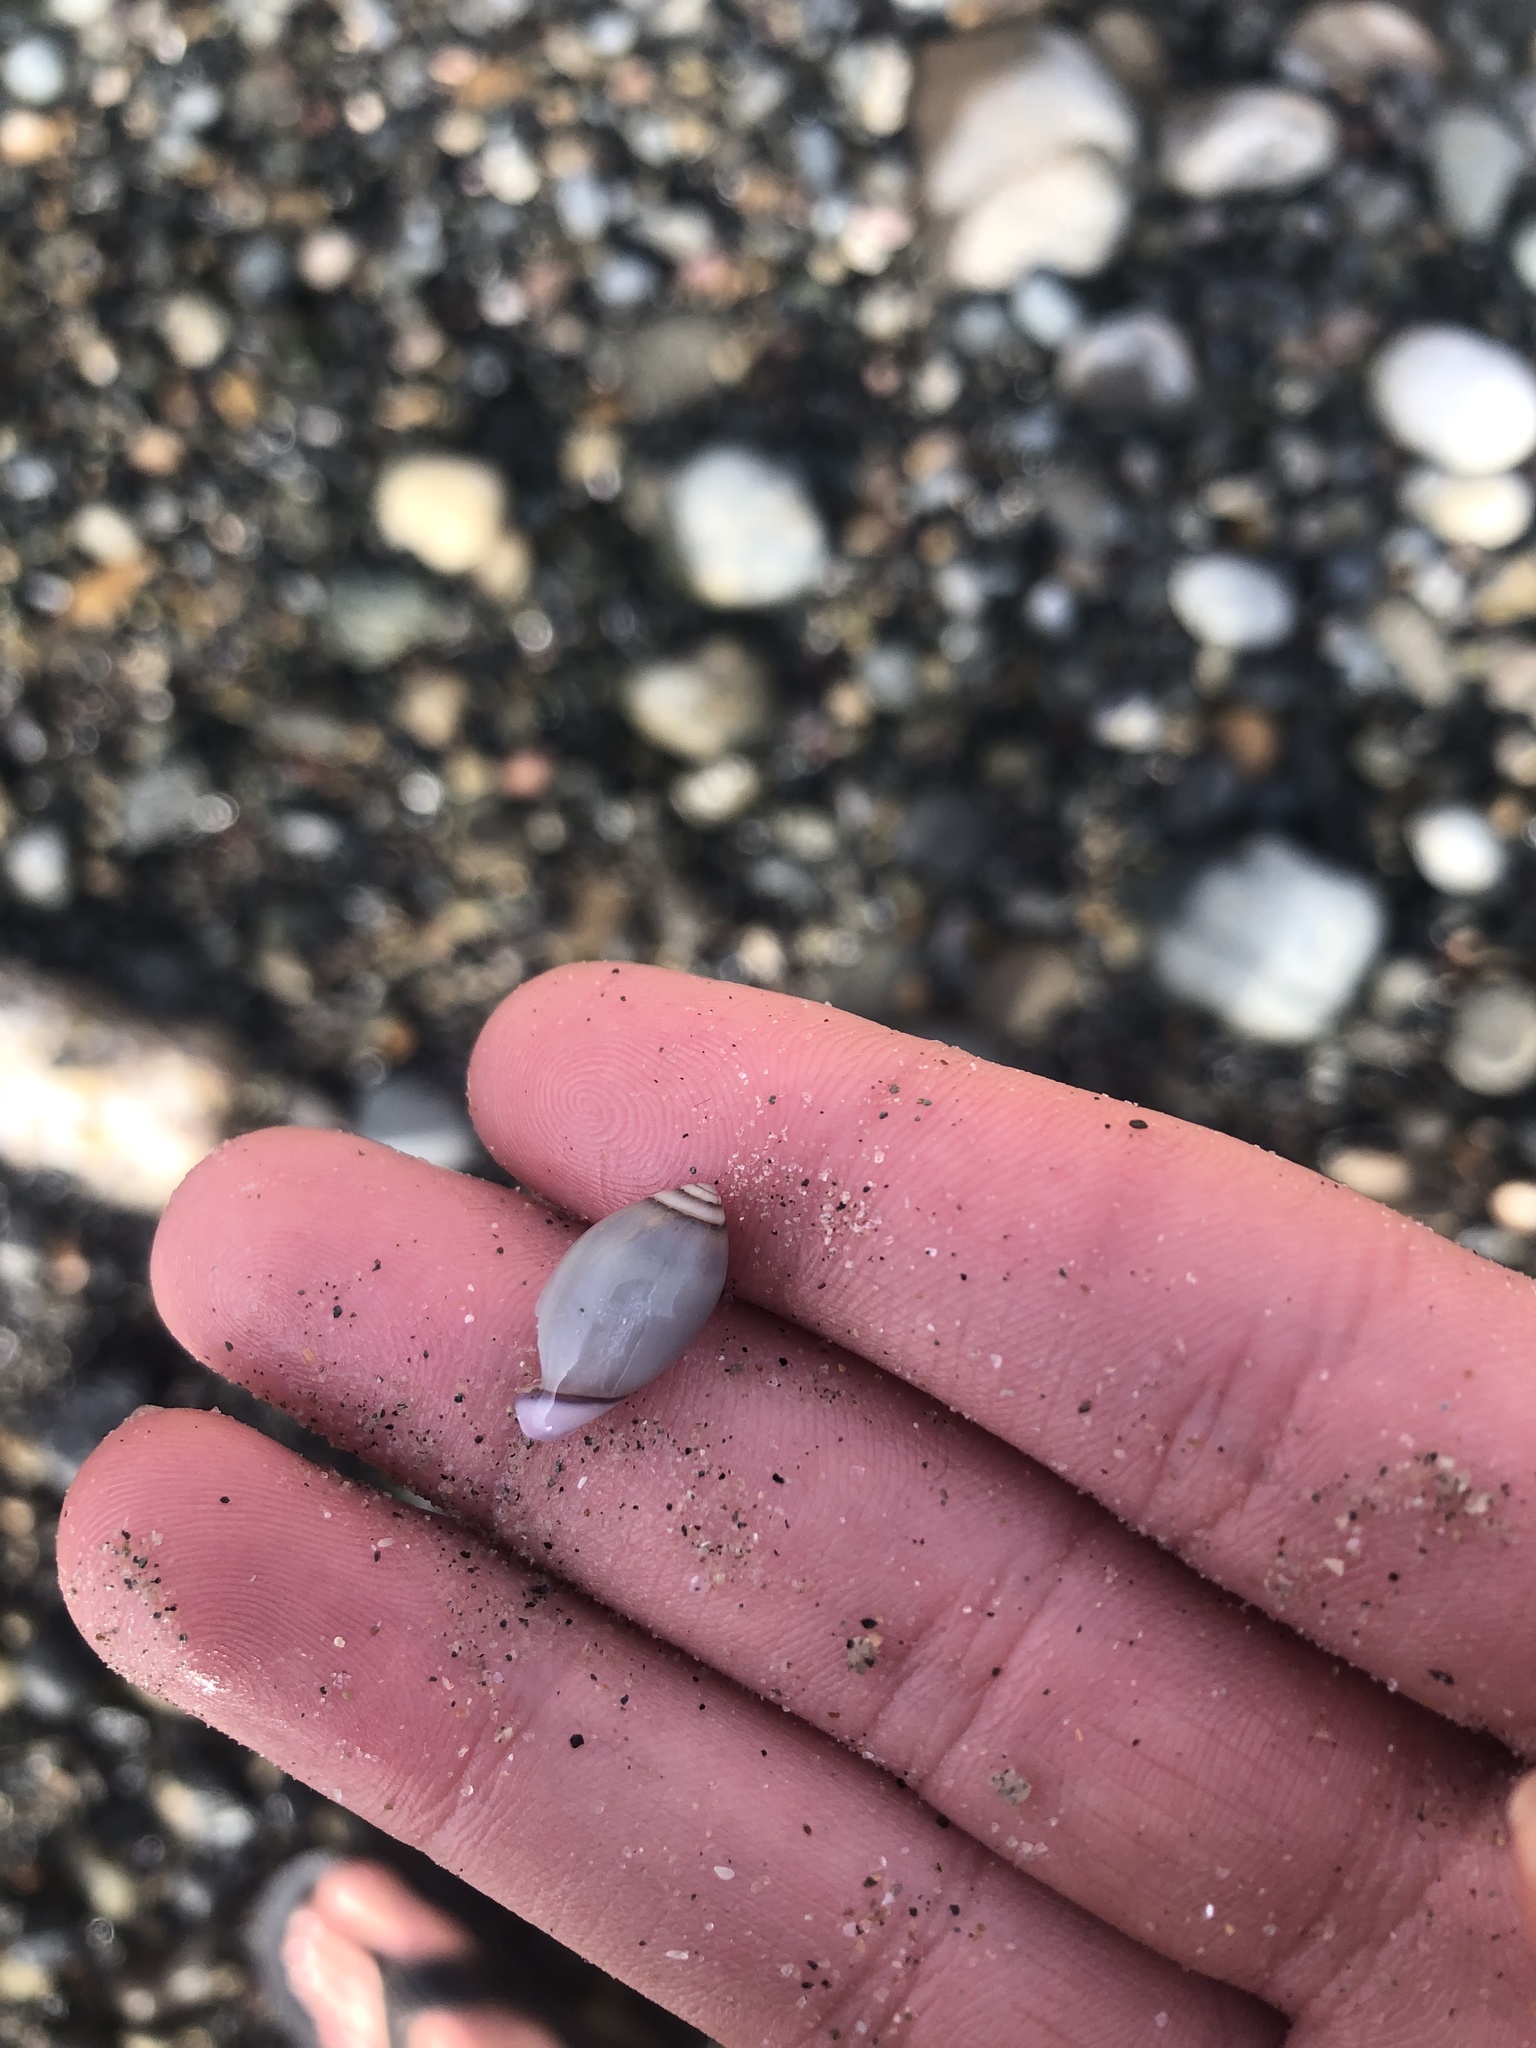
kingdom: Animalia
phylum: Mollusca
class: Gastropoda
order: Neogastropoda
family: Olividae
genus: Callianax
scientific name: Callianax biplicata
